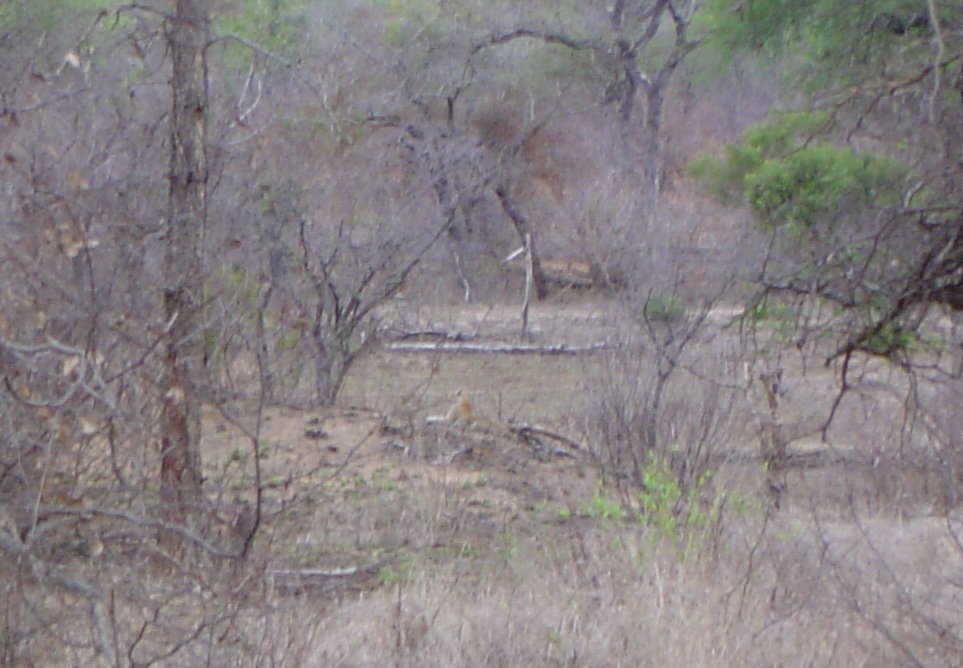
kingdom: Animalia
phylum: Chordata
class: Mammalia
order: Carnivora
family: Felidae
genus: Panthera
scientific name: Panthera pardus
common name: Leopard
